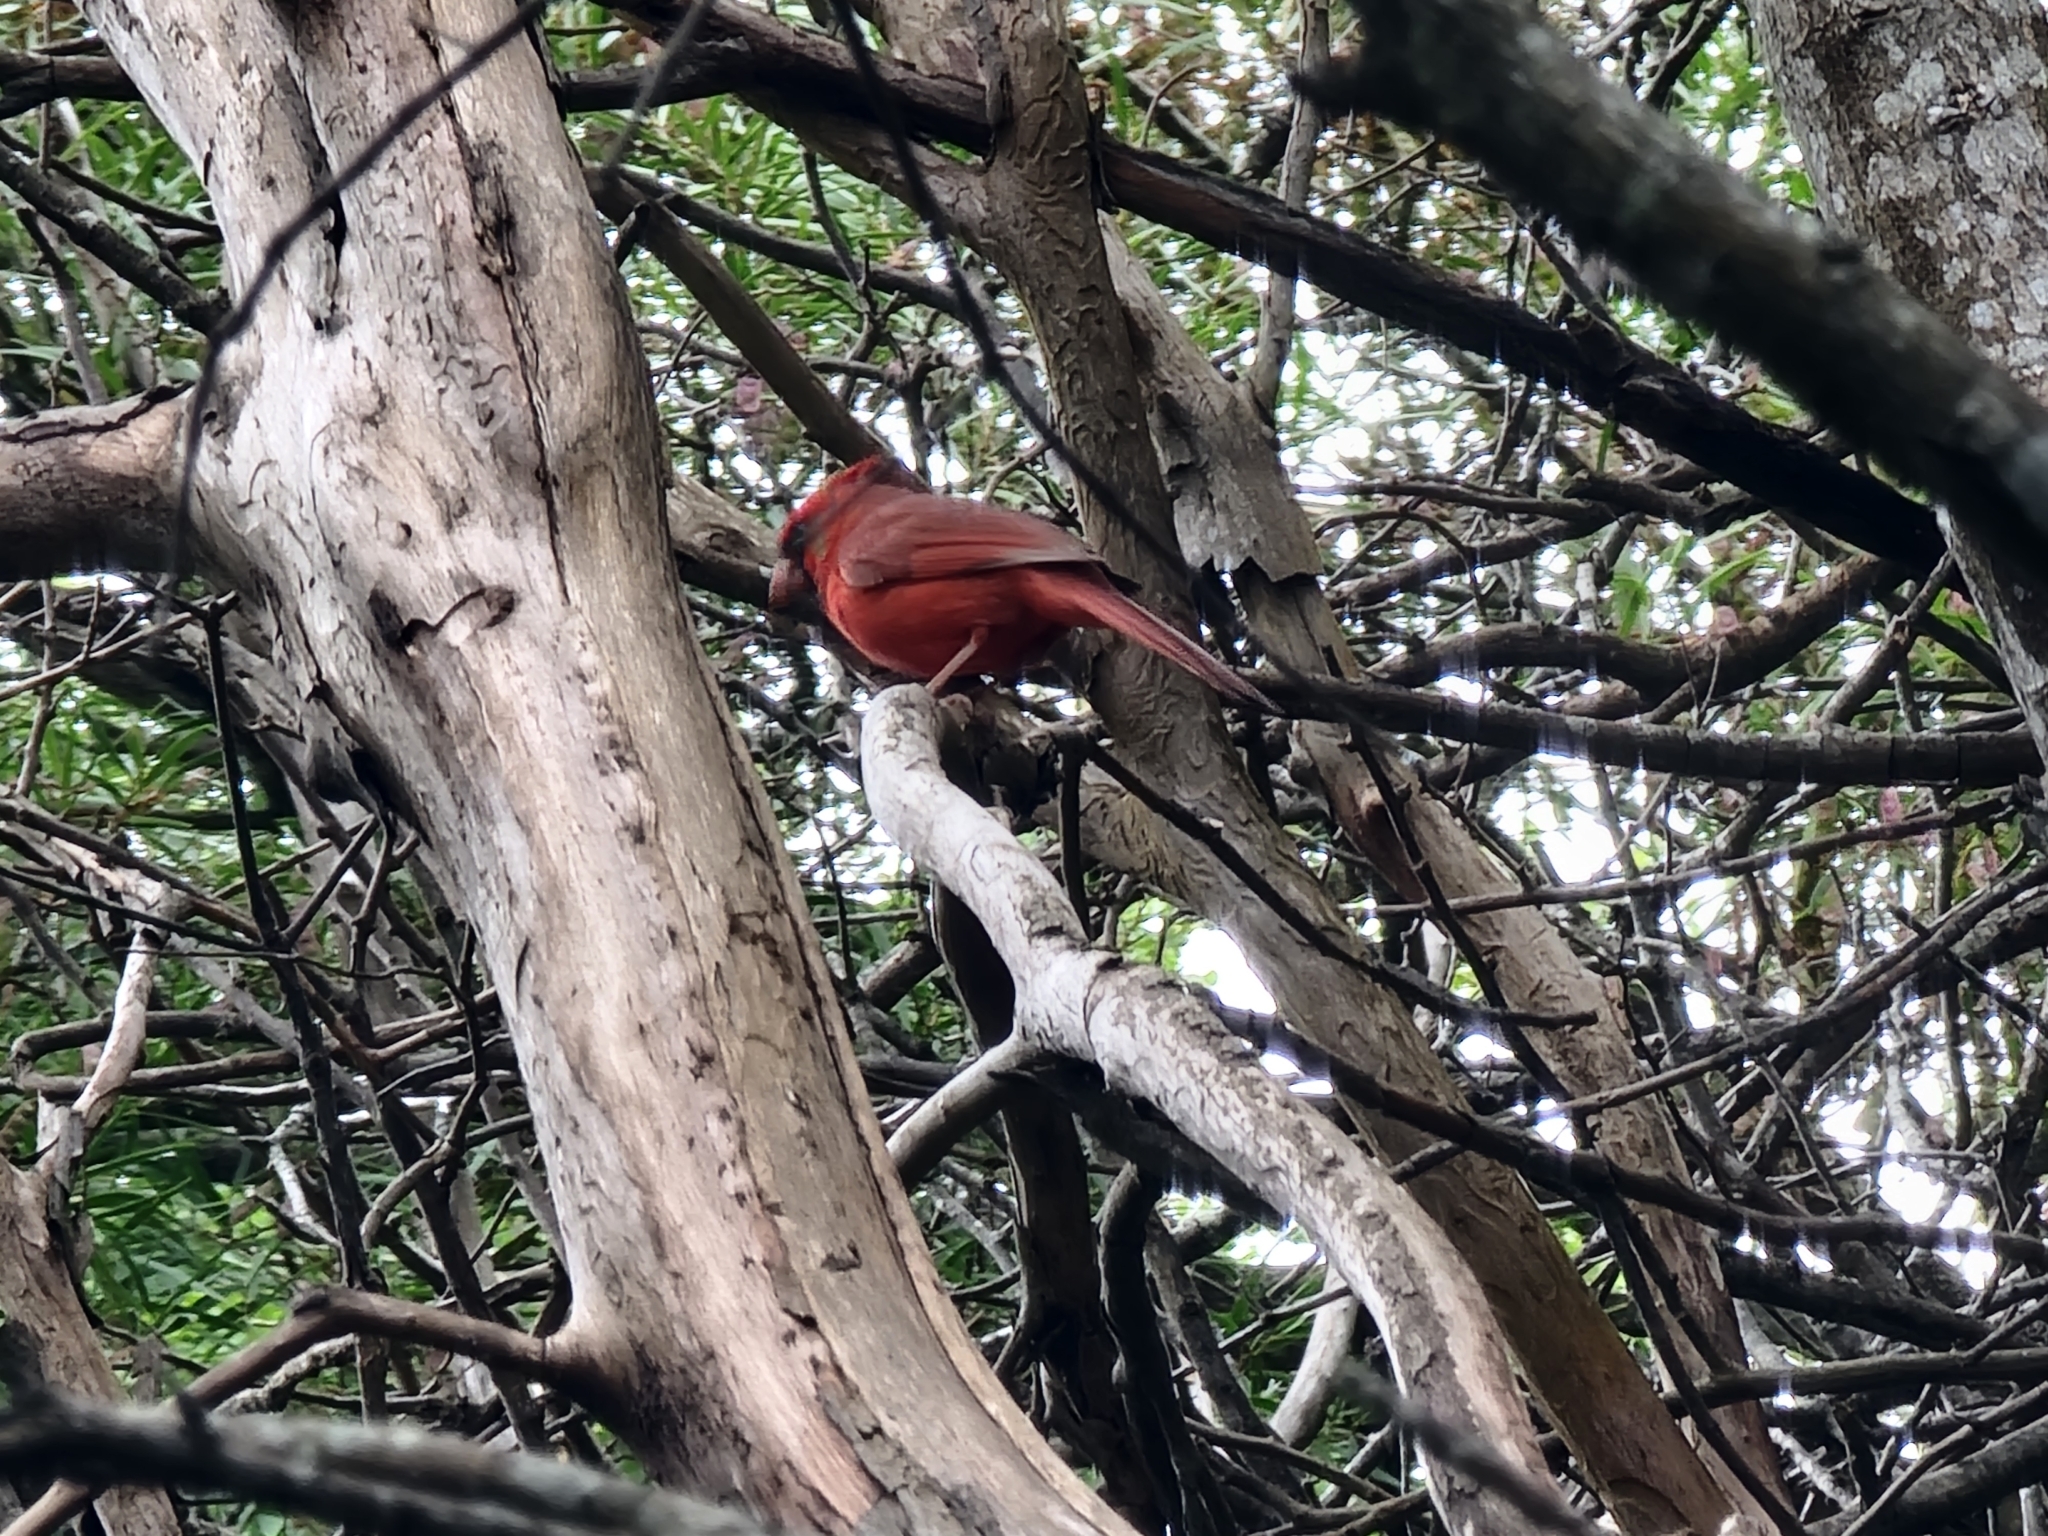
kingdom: Animalia
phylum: Chordata
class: Aves
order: Passeriformes
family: Cardinalidae
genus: Cardinalis
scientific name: Cardinalis cardinalis
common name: Northern cardinal
